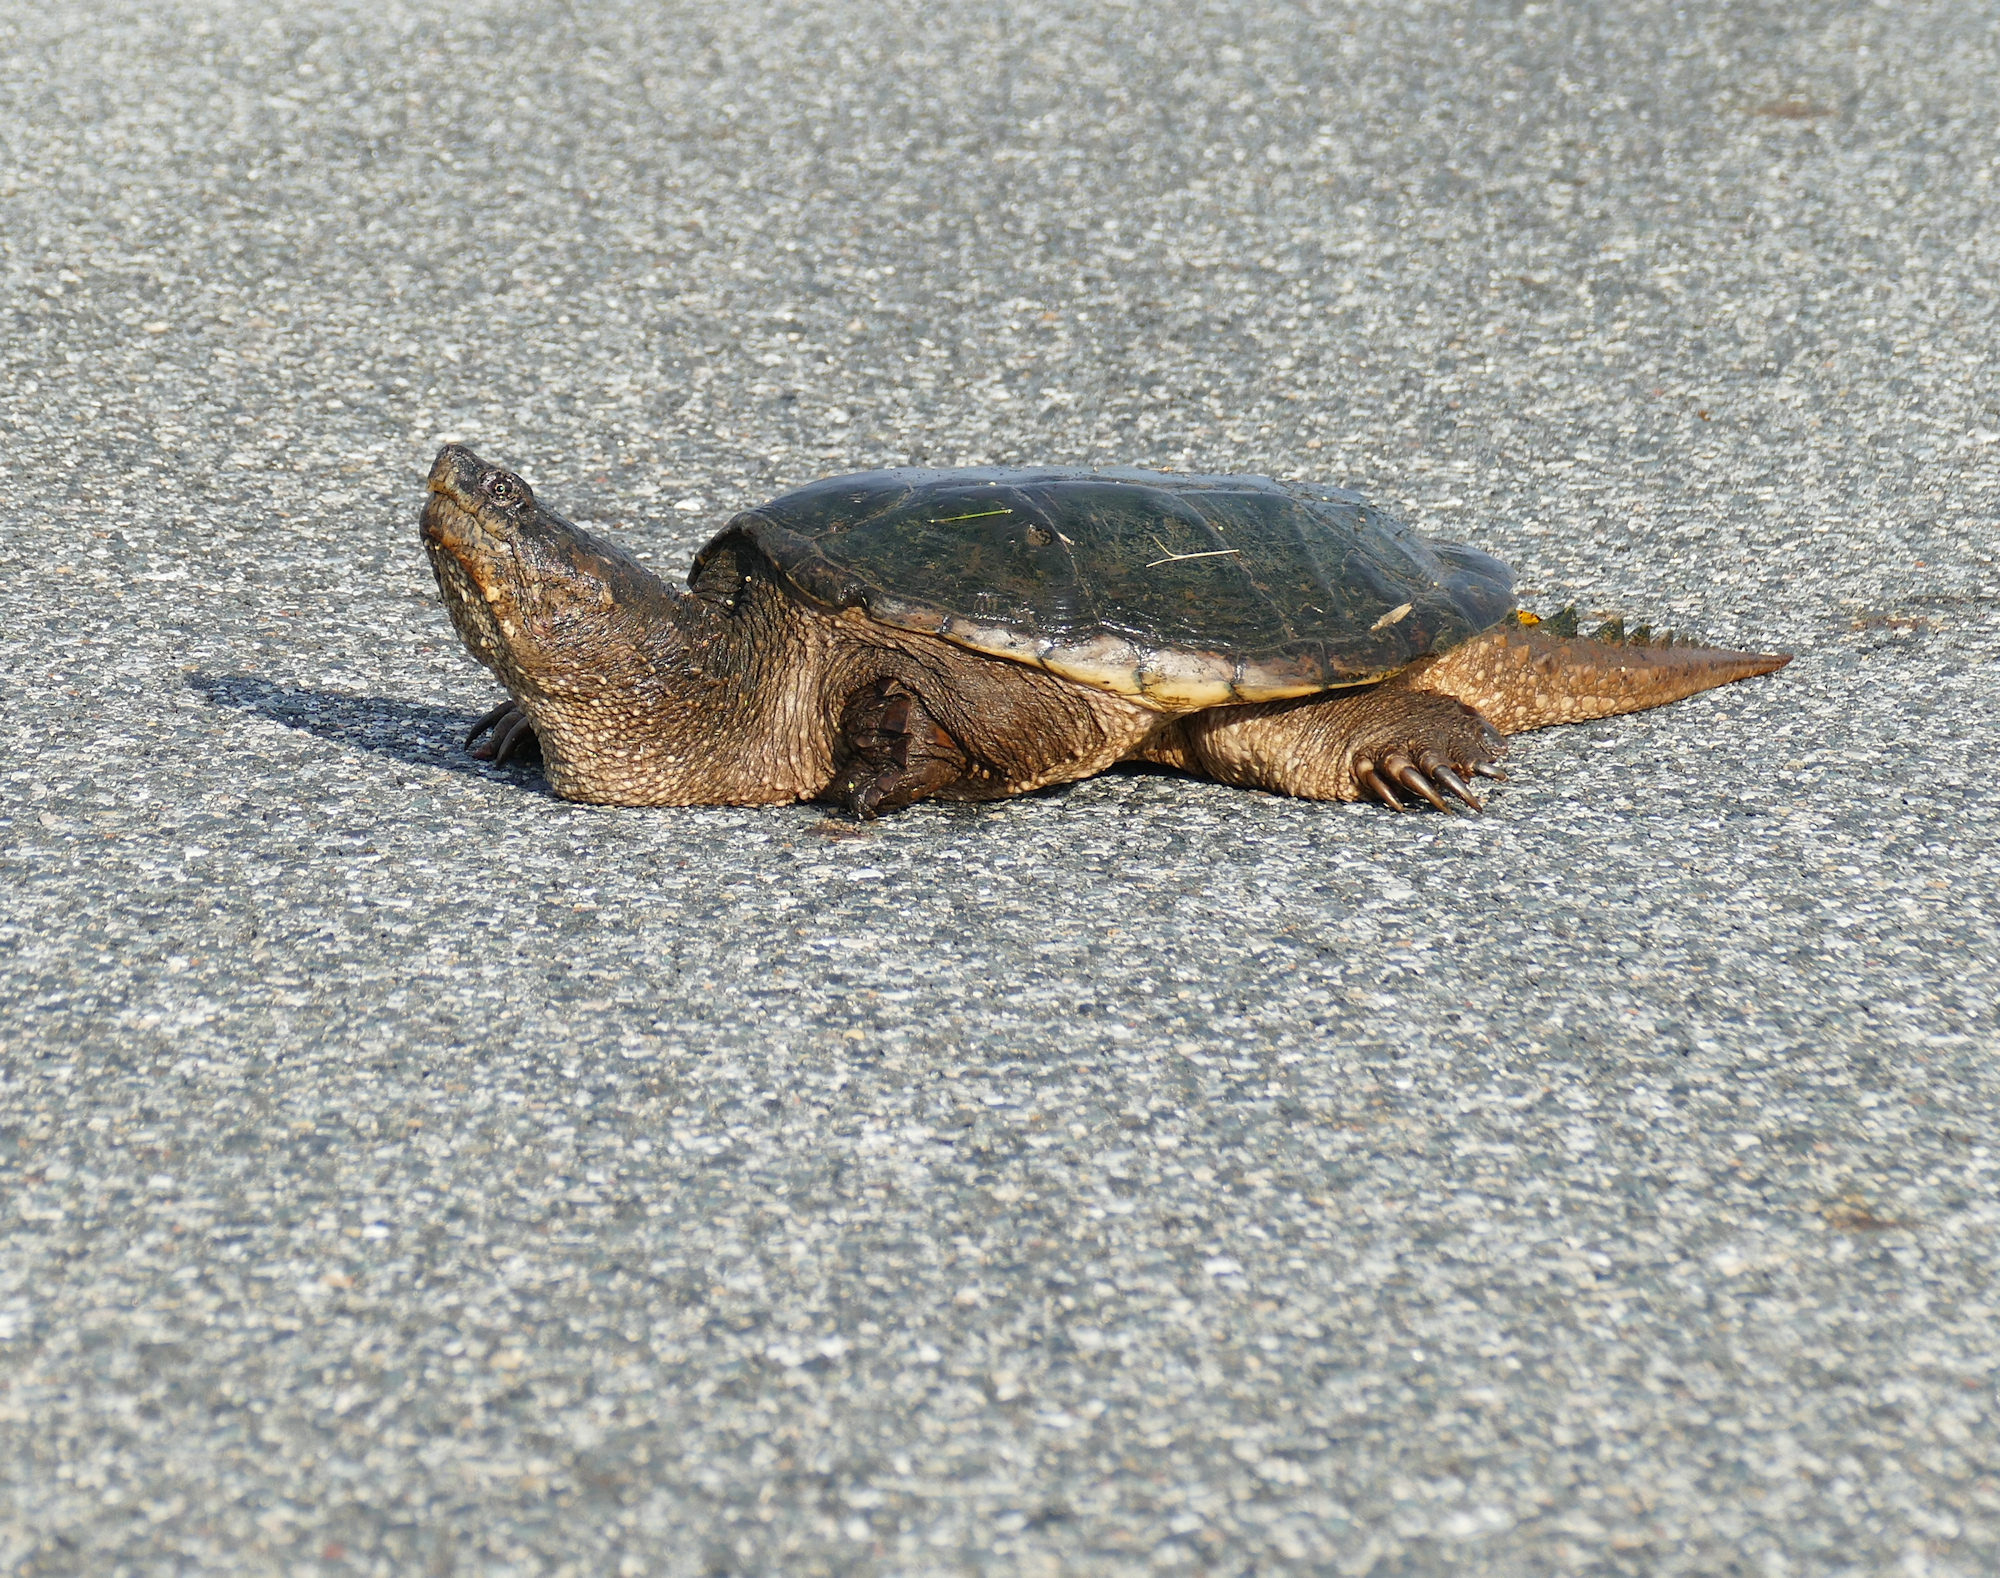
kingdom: Animalia
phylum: Chordata
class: Testudines
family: Chelydridae
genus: Chelydra
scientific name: Chelydra serpentina
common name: Common snapping turtle
